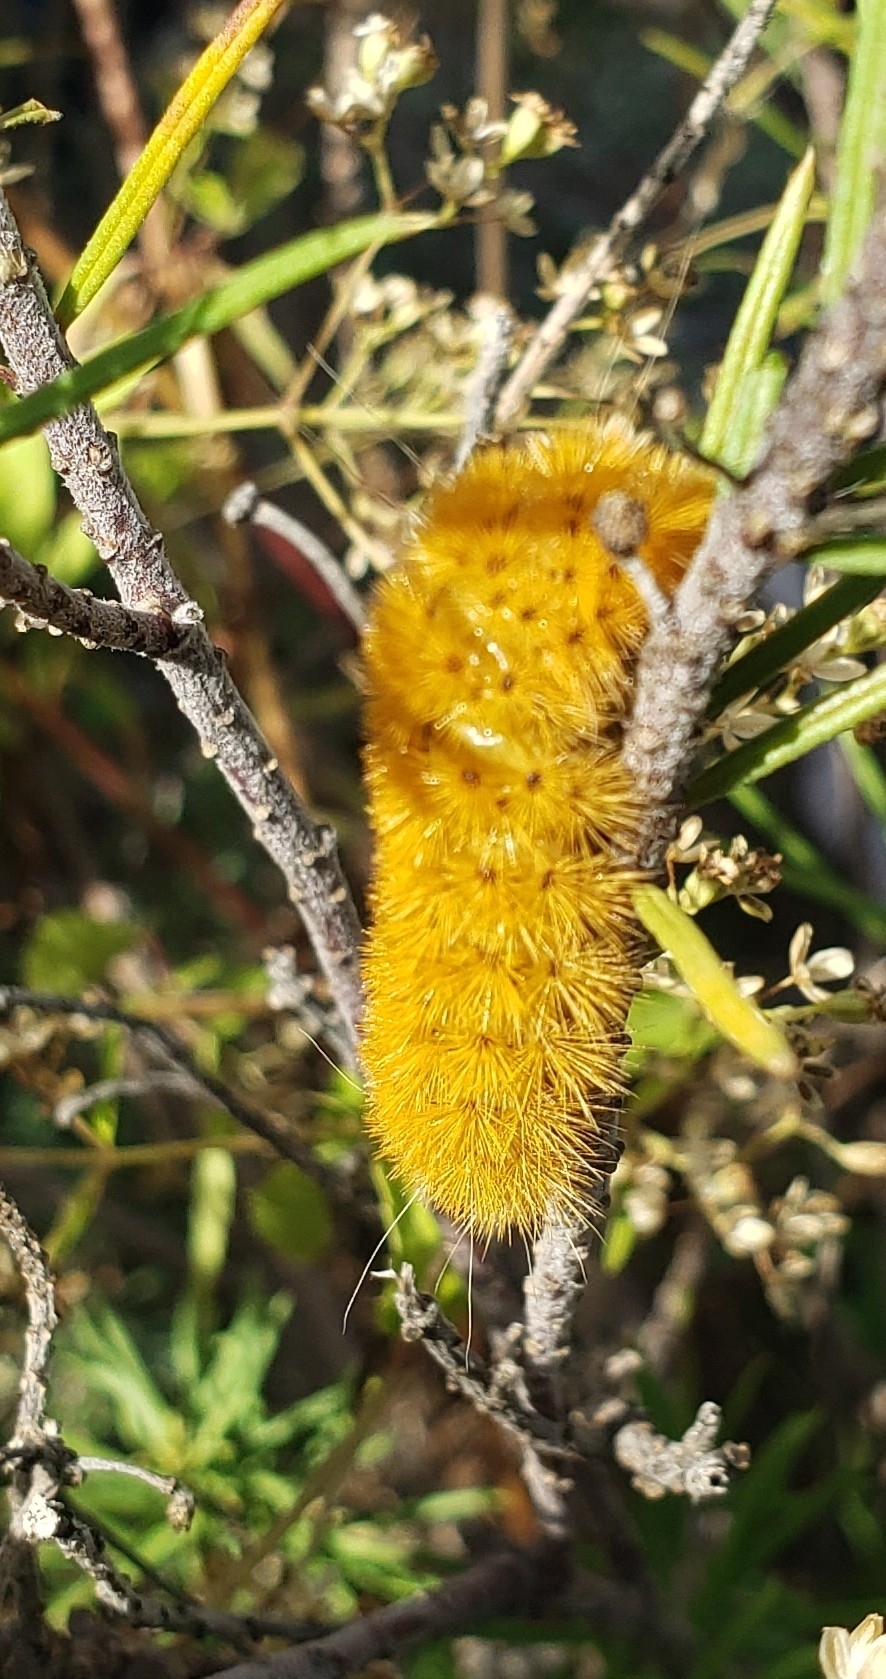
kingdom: Animalia
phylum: Arthropoda
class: Insecta
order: Lepidoptera
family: Erebidae
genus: Lerina
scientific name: Lerina incarnata
